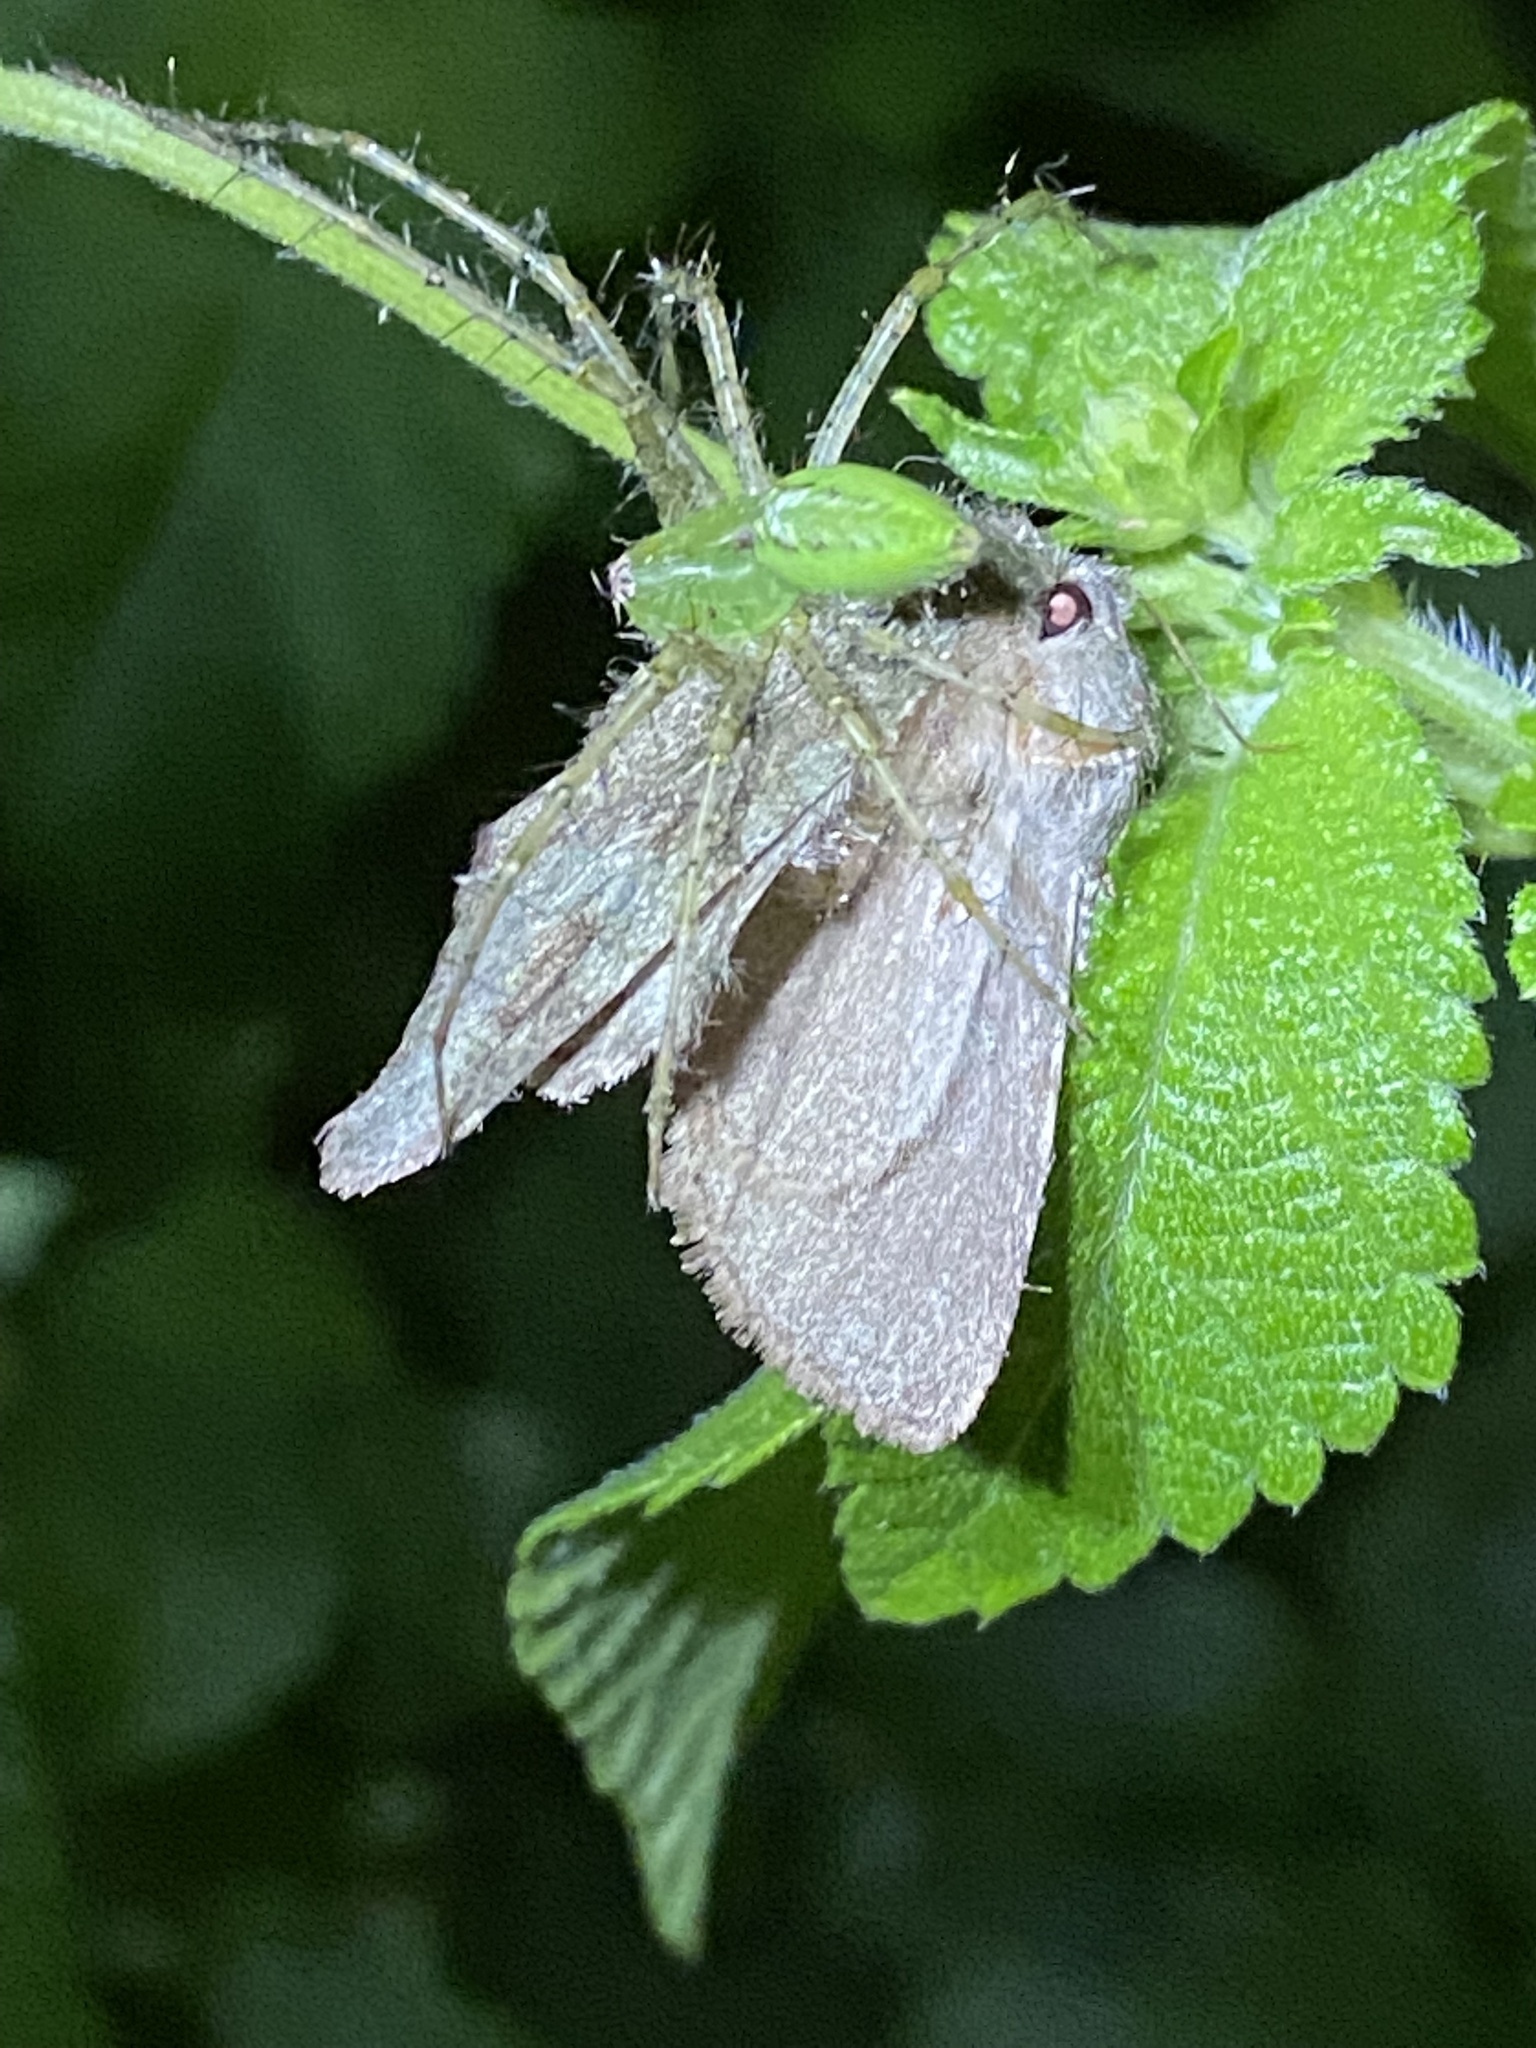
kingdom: Animalia
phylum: Arthropoda
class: Arachnida
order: Araneae
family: Oxyopidae
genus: Peucetia
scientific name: Peucetia viridans
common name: Lynx spiders
